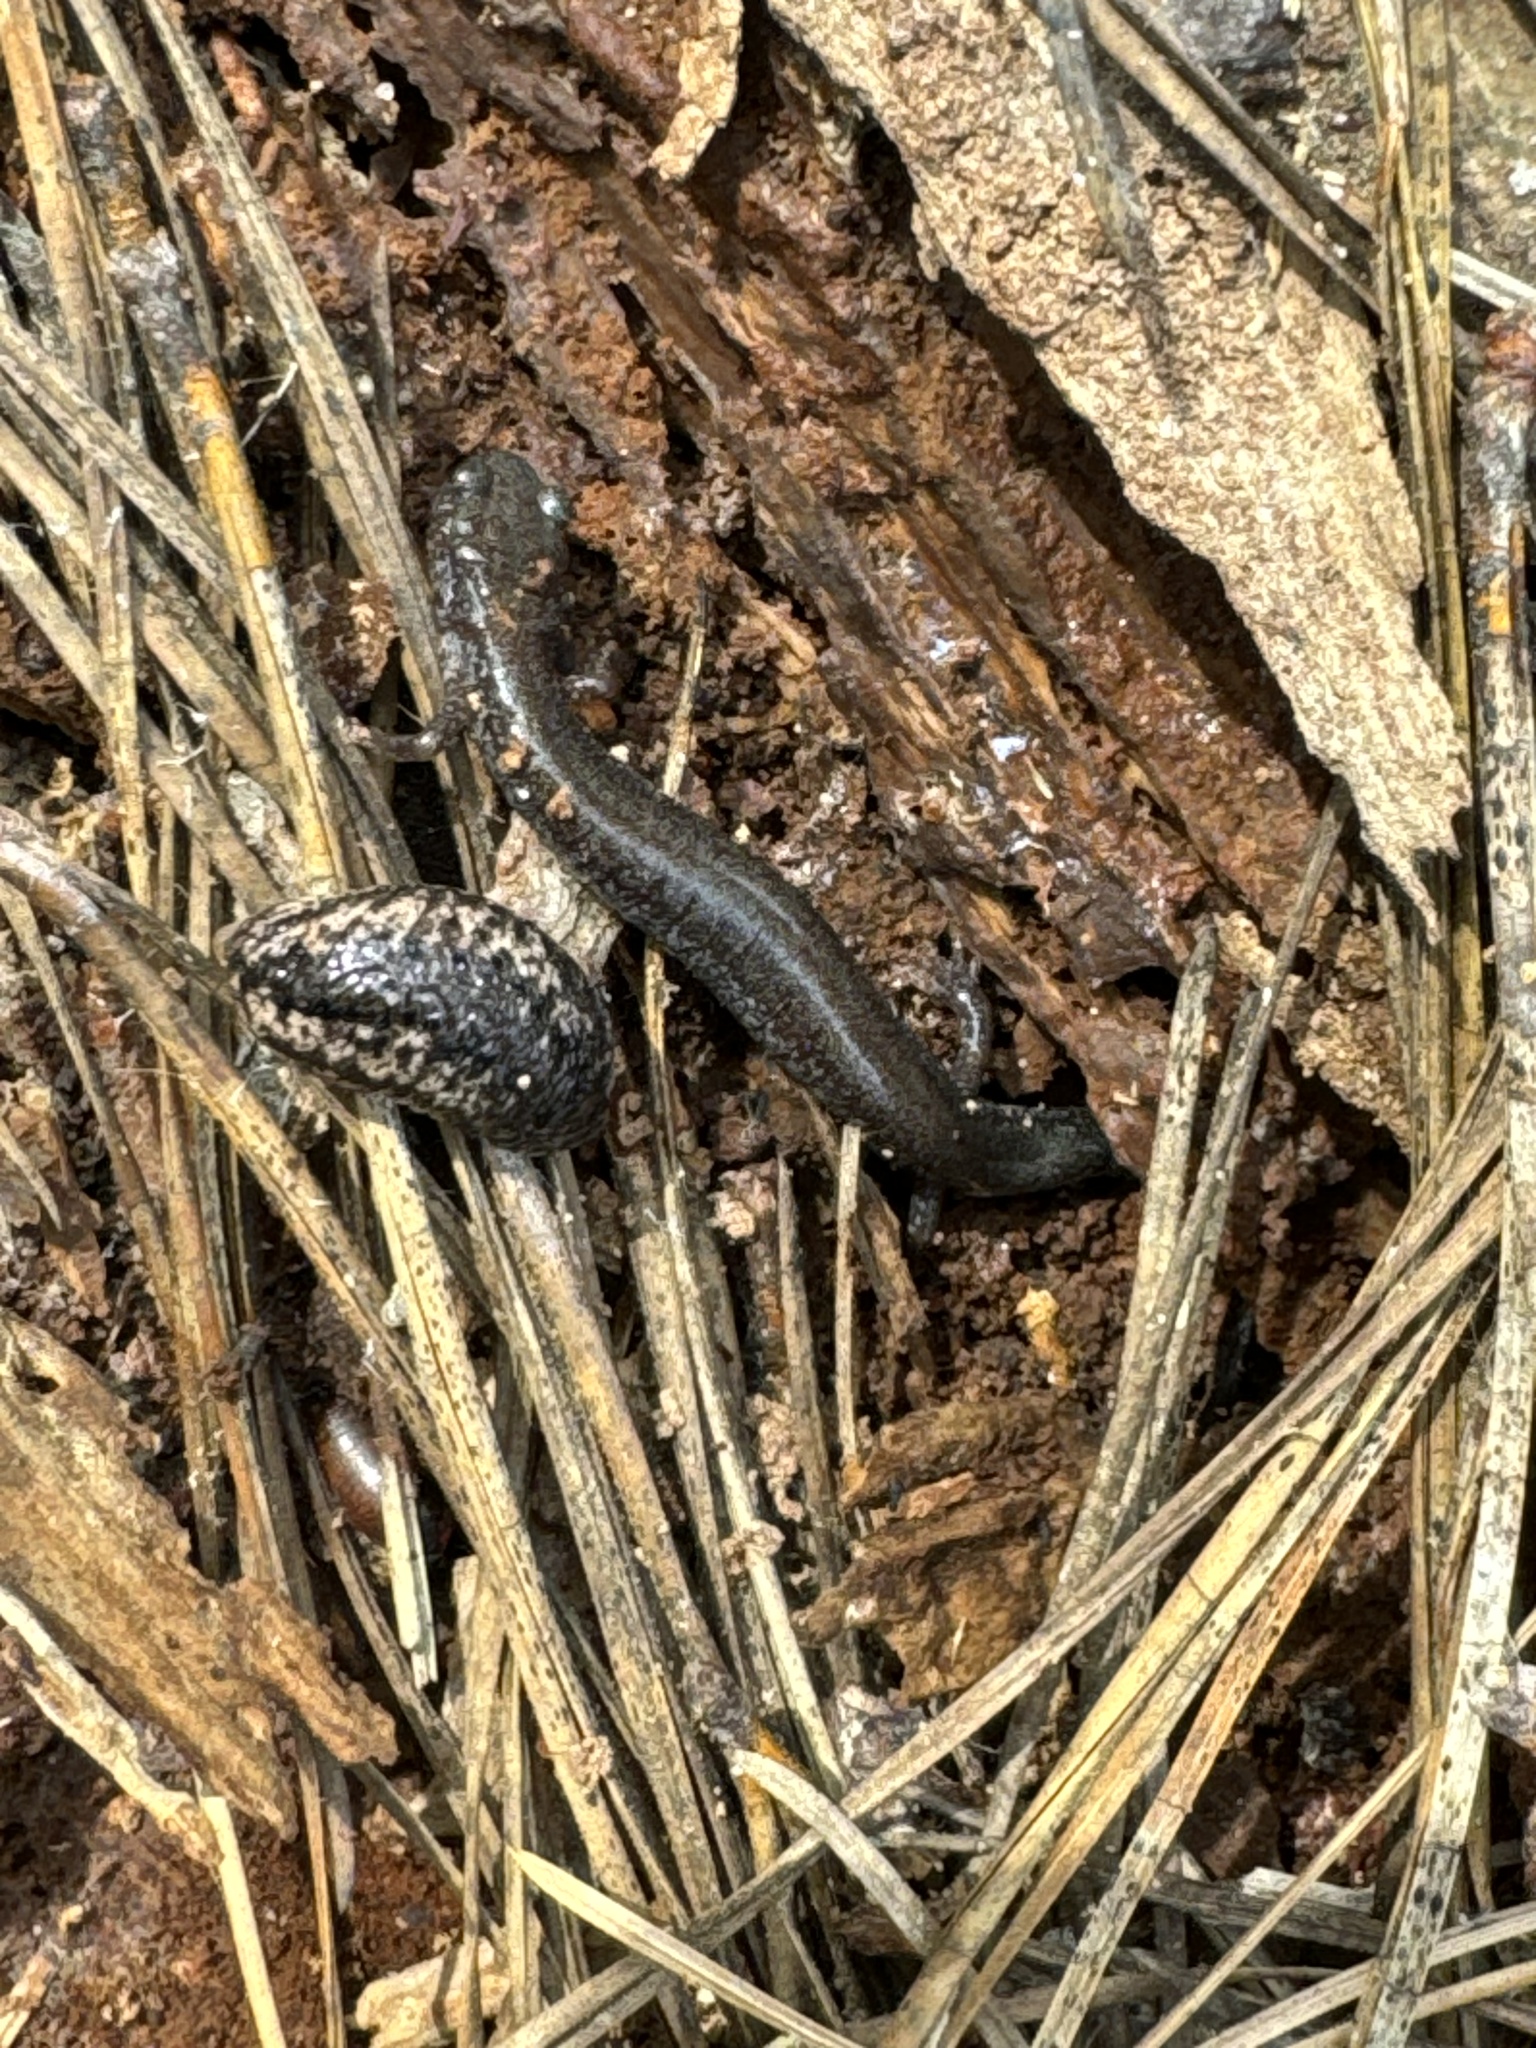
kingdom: Animalia
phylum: Chordata
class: Amphibia
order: Caudata
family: Plethodontidae
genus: Plethodon
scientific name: Plethodon cinereus
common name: Redback salamander
